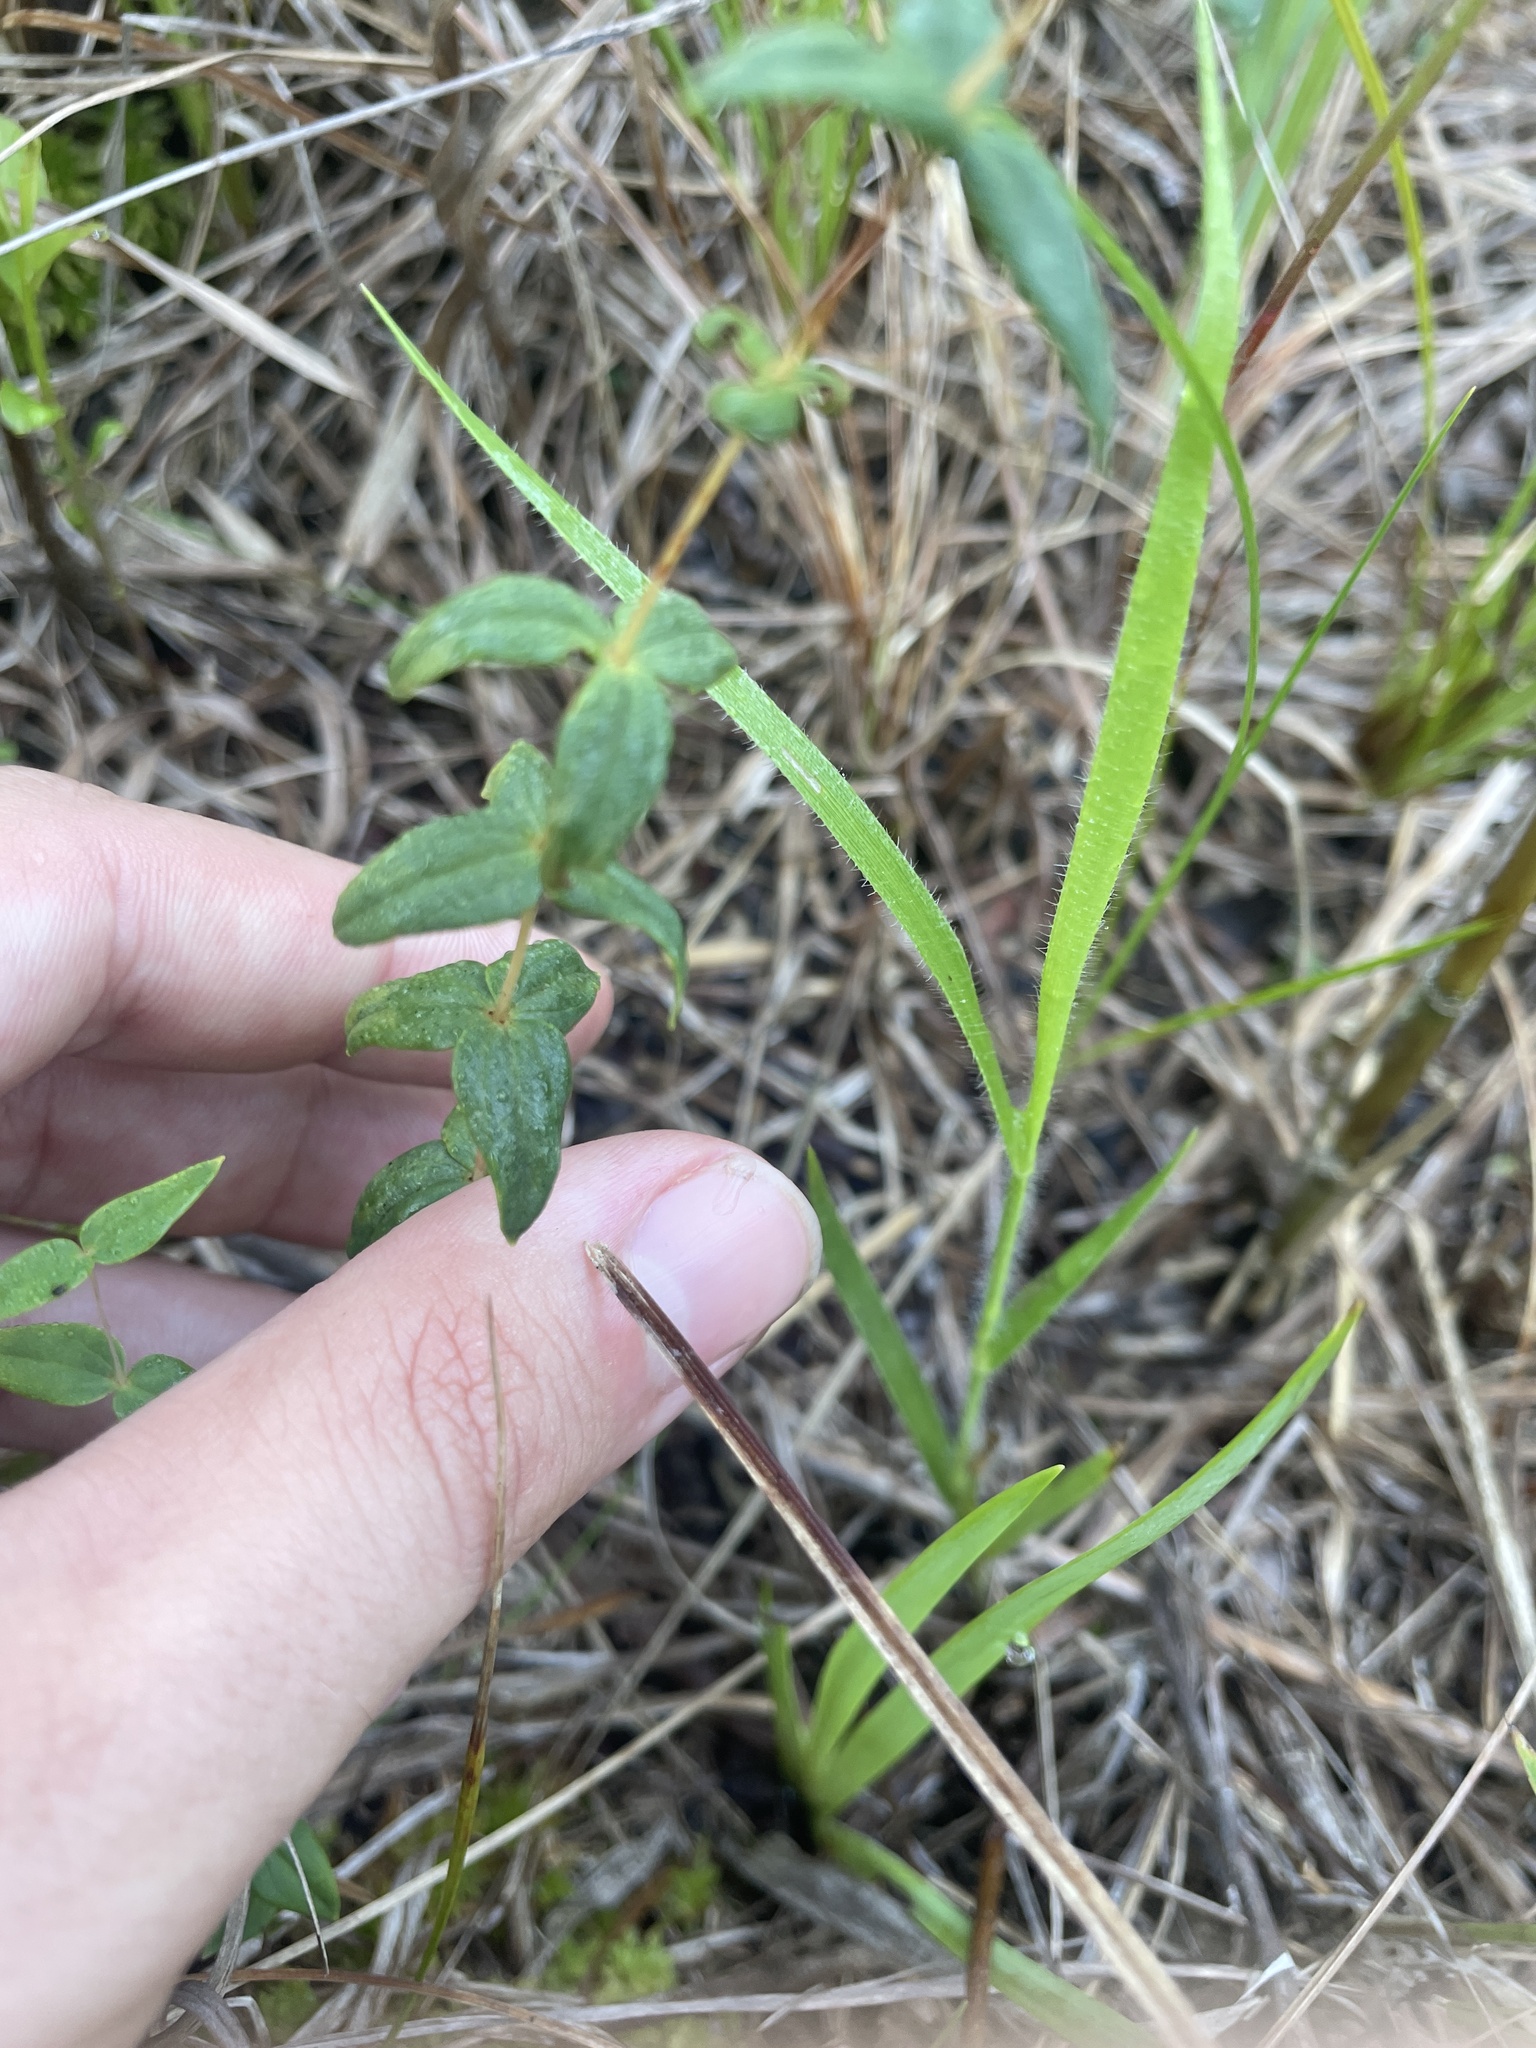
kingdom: Plantae
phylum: Tracheophyta
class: Magnoliopsida
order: Ericales
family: Primulaceae
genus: Lysimachia
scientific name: Lysimachia asperulifolia
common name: Rough-leaf loosestrife
